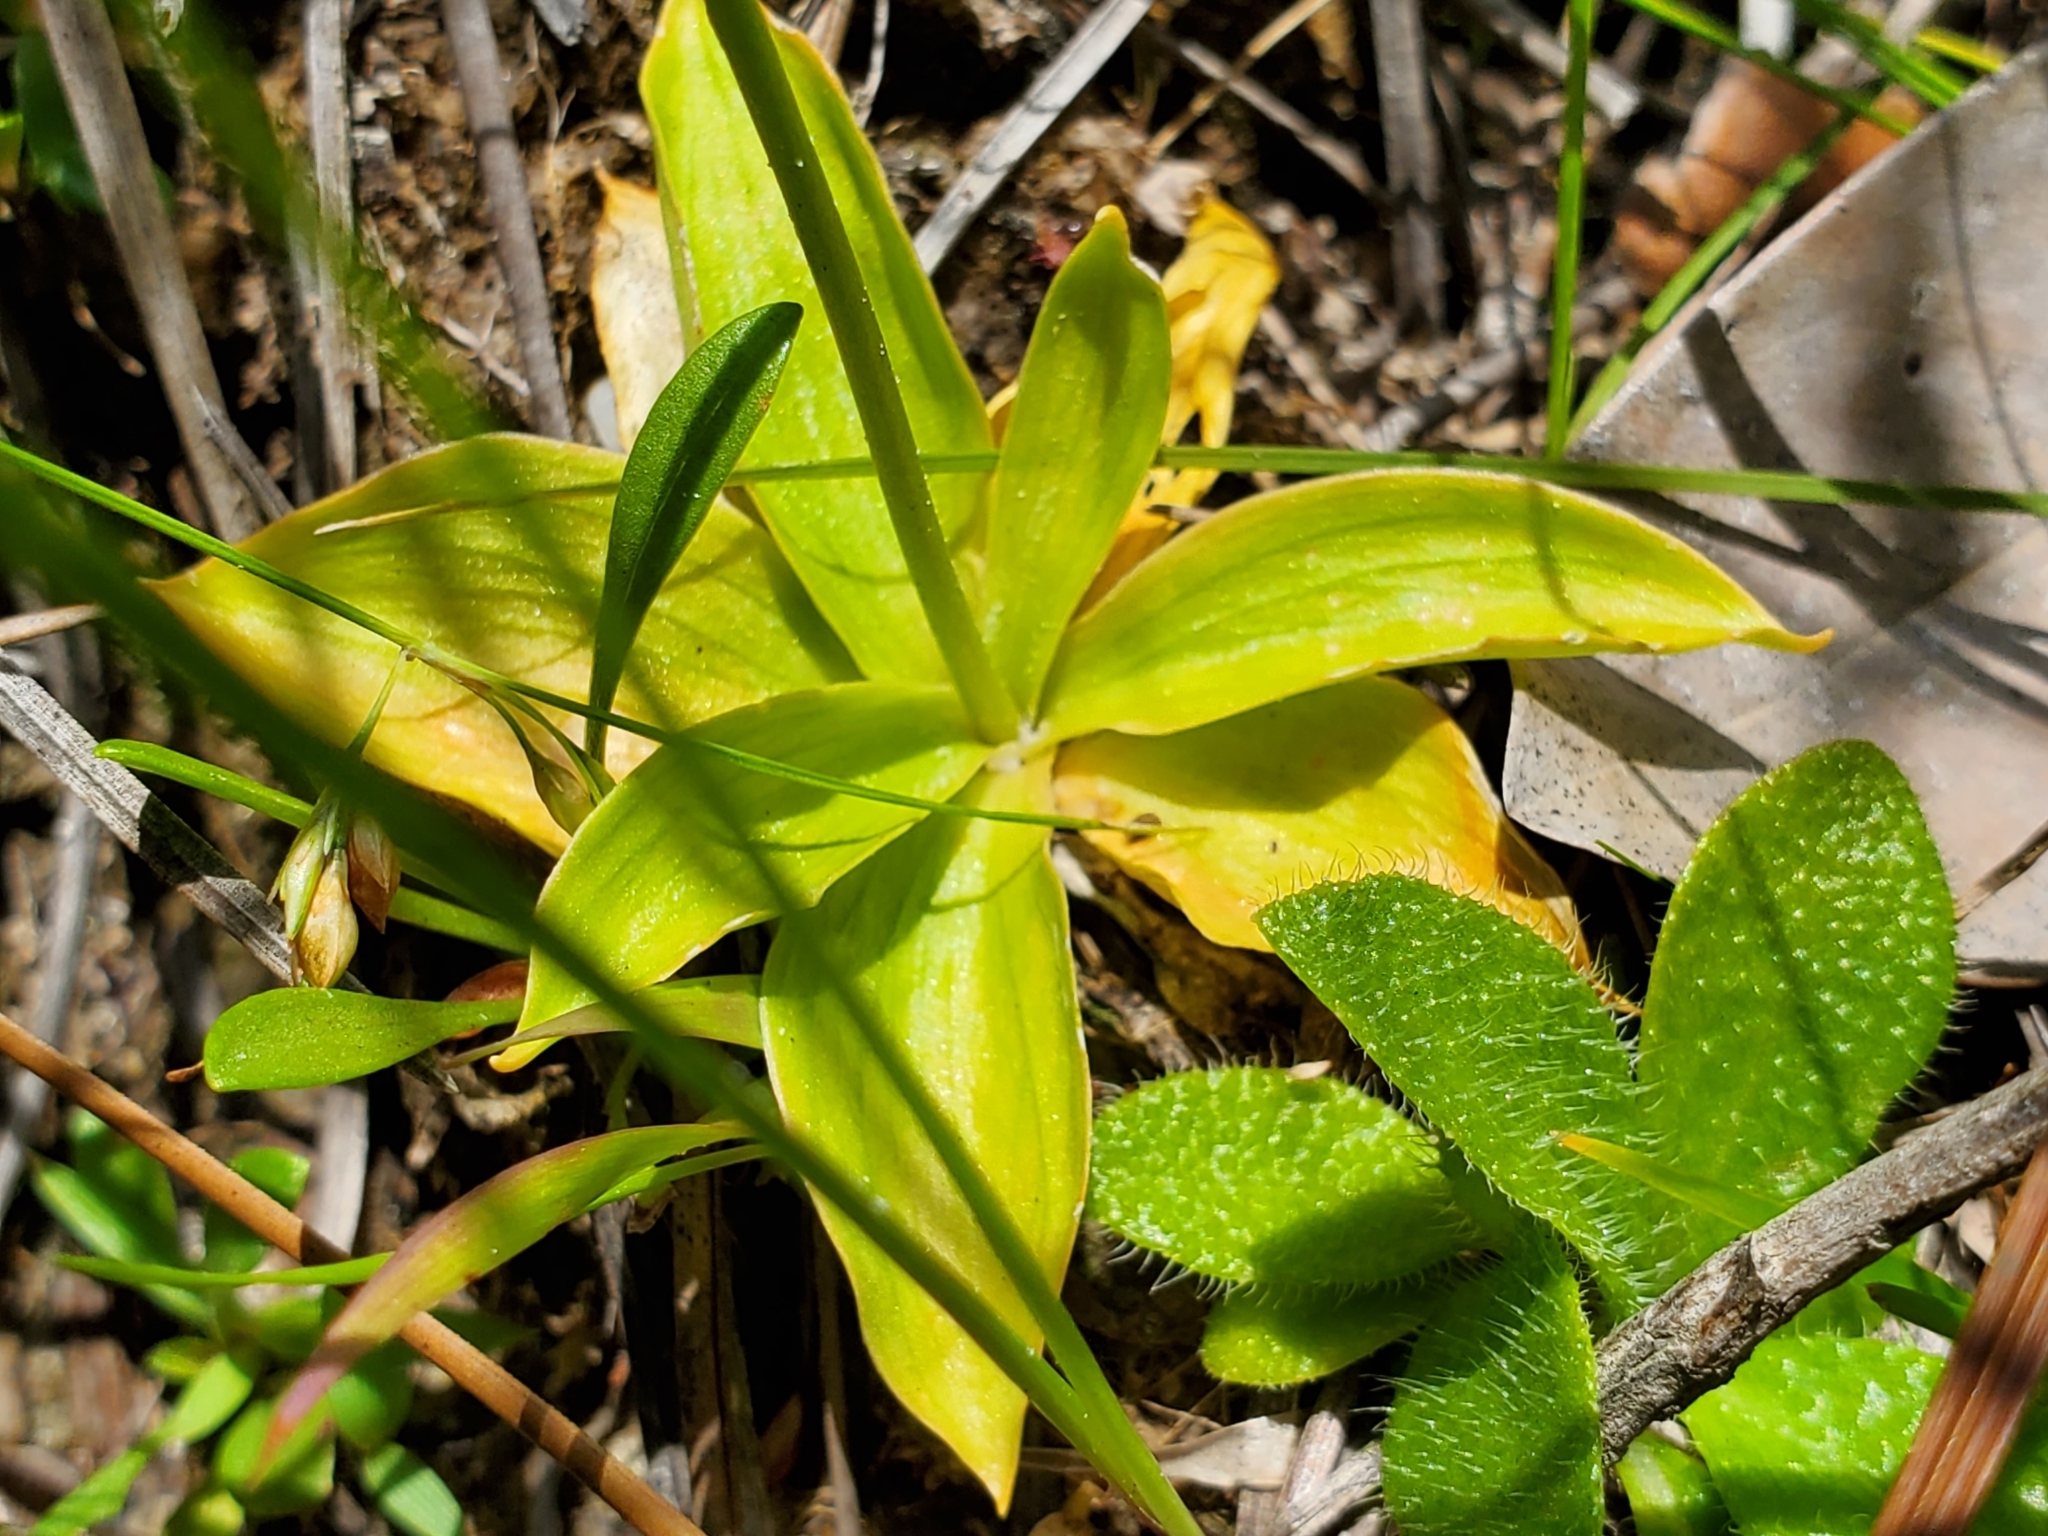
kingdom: Plantae
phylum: Tracheophyta
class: Liliopsida
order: Dioscoreales
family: Nartheciaceae
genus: Aletris
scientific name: Aletris aurea
